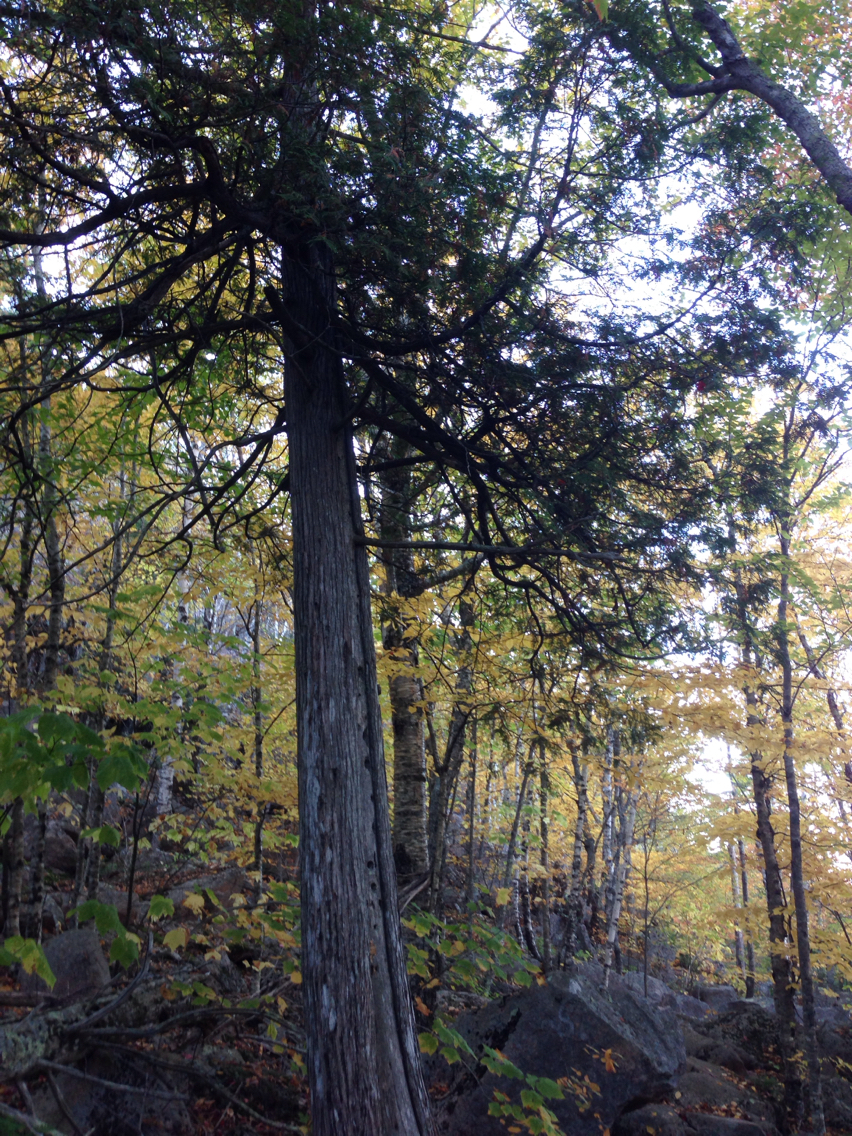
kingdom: Plantae
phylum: Tracheophyta
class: Pinopsida
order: Pinales
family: Cupressaceae
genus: Thuja
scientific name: Thuja occidentalis
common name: Northern white-cedar
